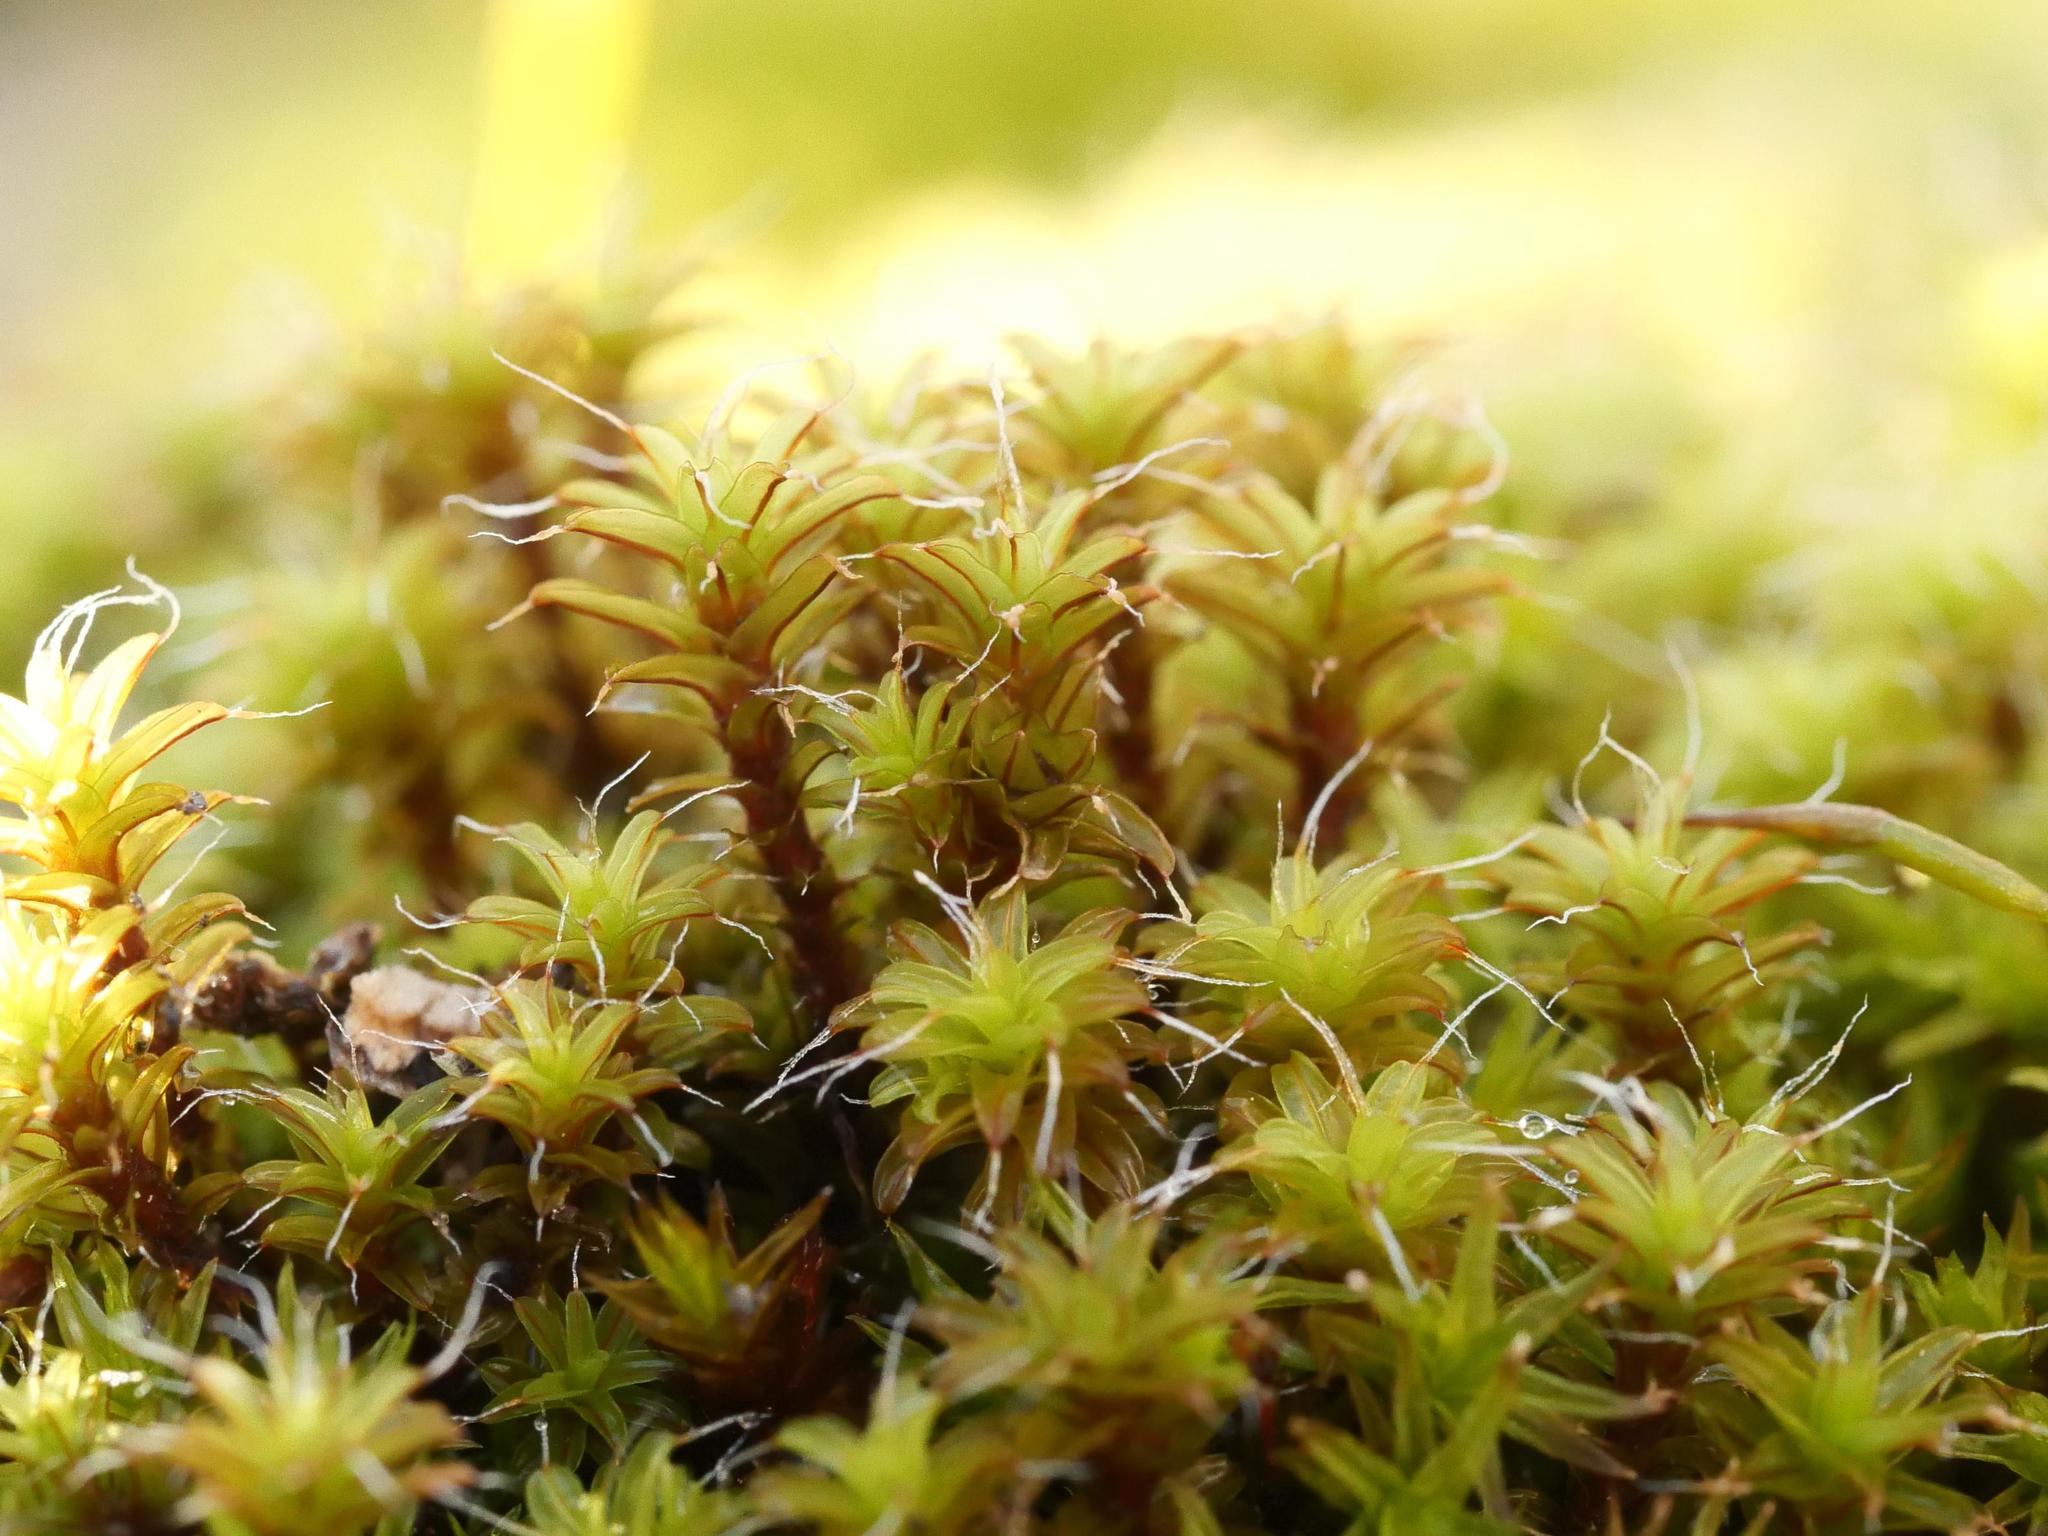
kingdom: Plantae
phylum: Bryophyta
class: Bryopsida
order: Pottiales
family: Pottiaceae
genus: Syntrichia
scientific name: Syntrichia ruralis
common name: Sidewalk screw moss
